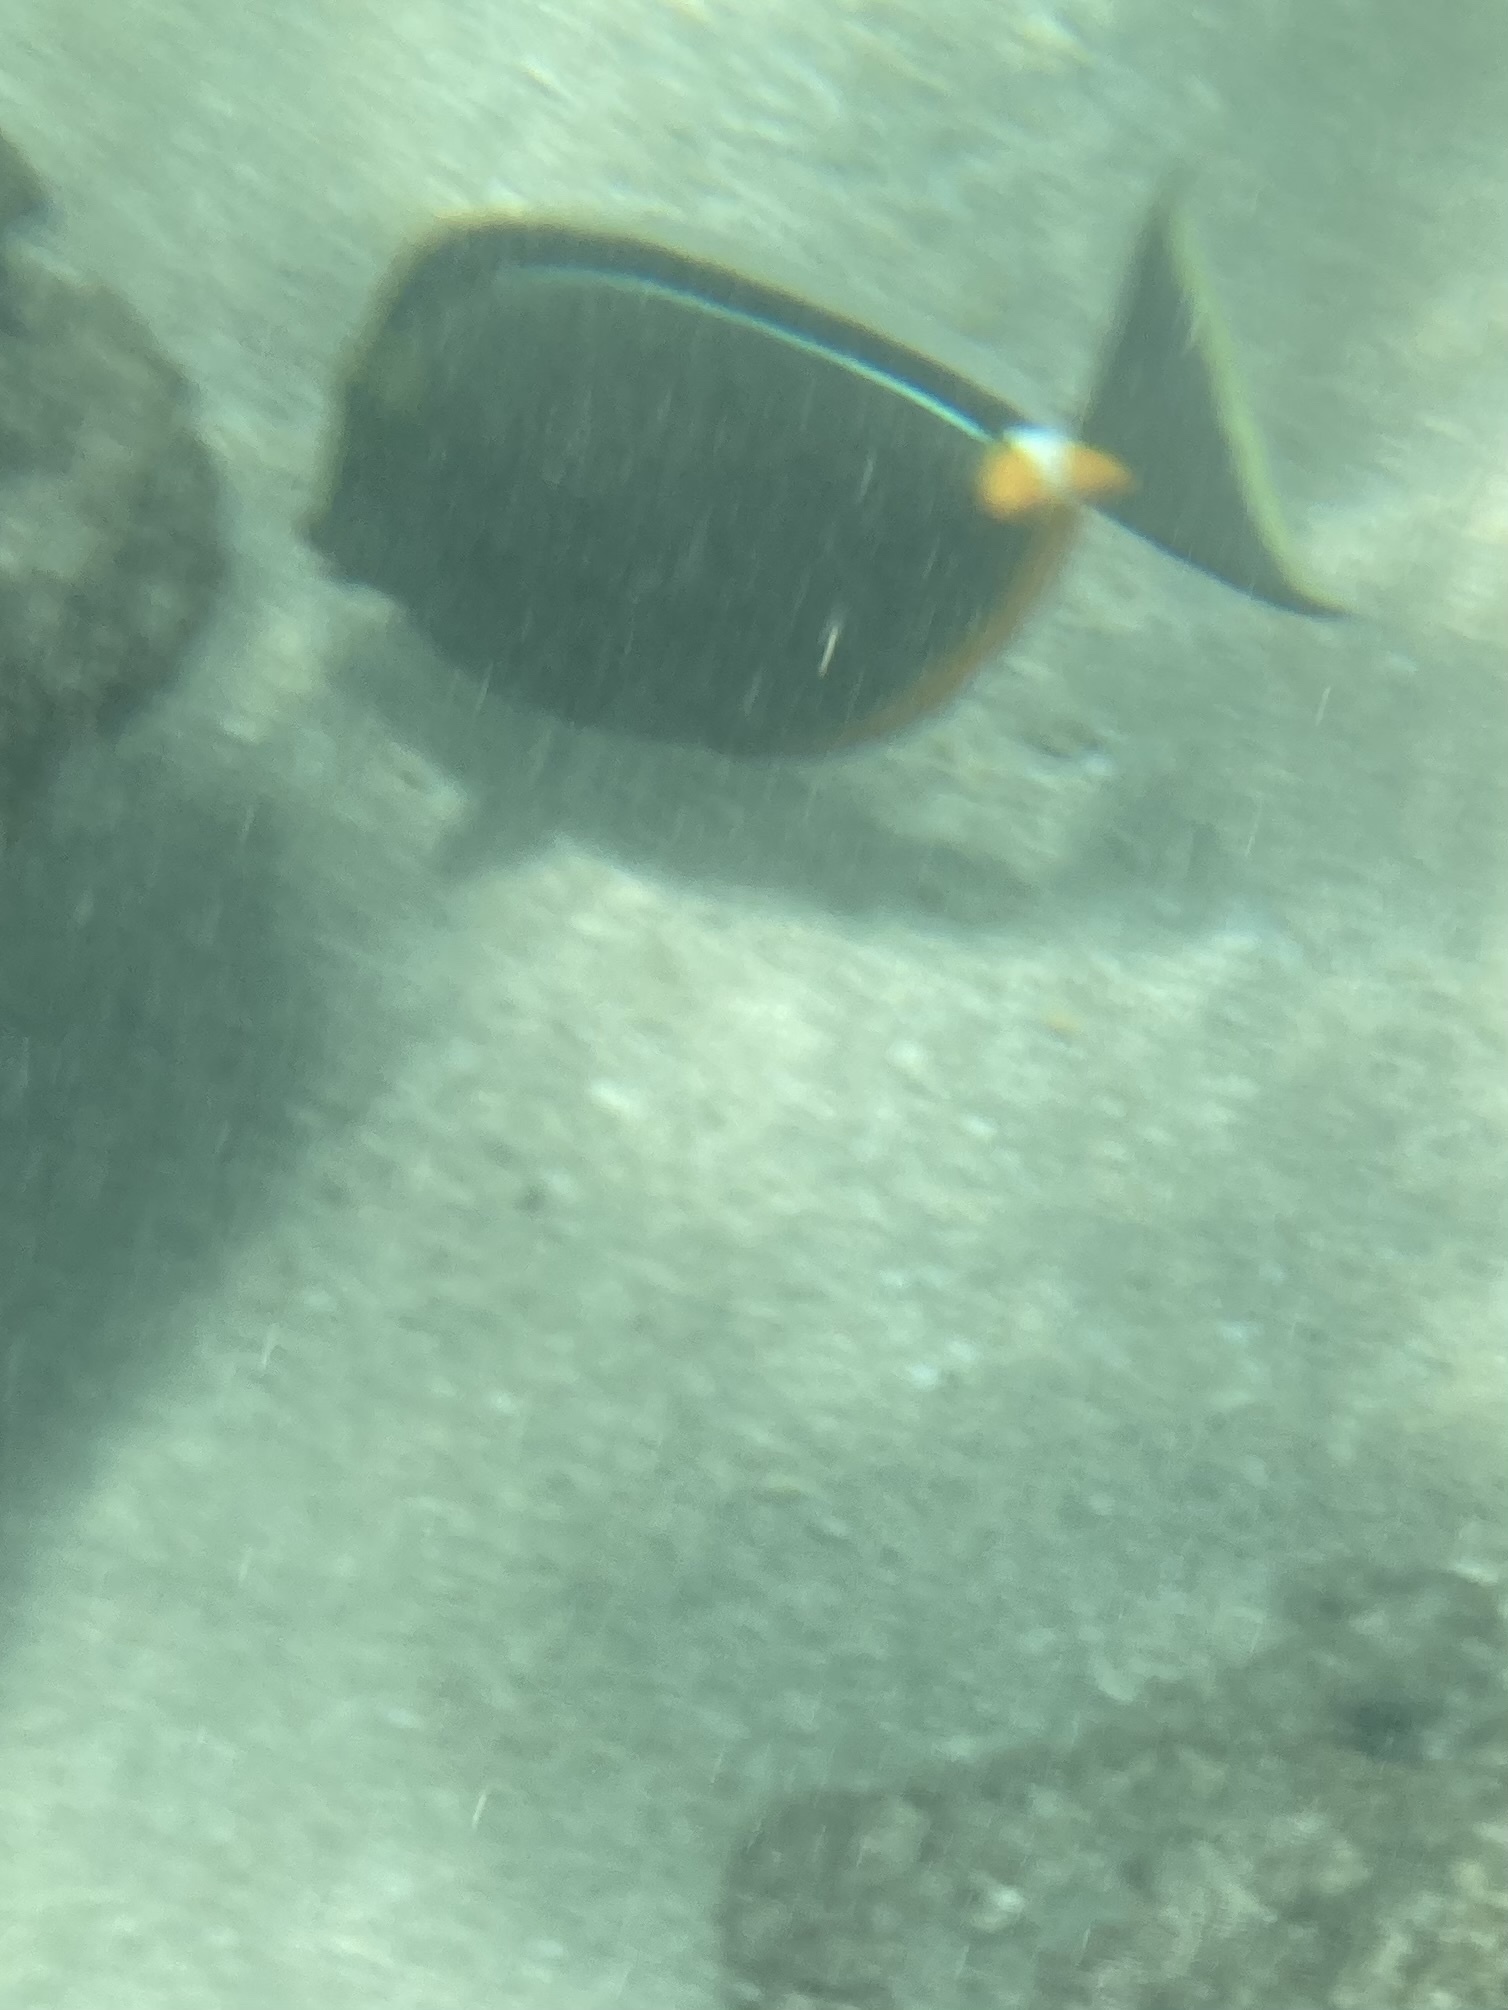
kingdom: Animalia
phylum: Chordata
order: Perciformes
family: Acanthuridae
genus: Naso
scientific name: Naso lituratus
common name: Orangespine unicornfish
